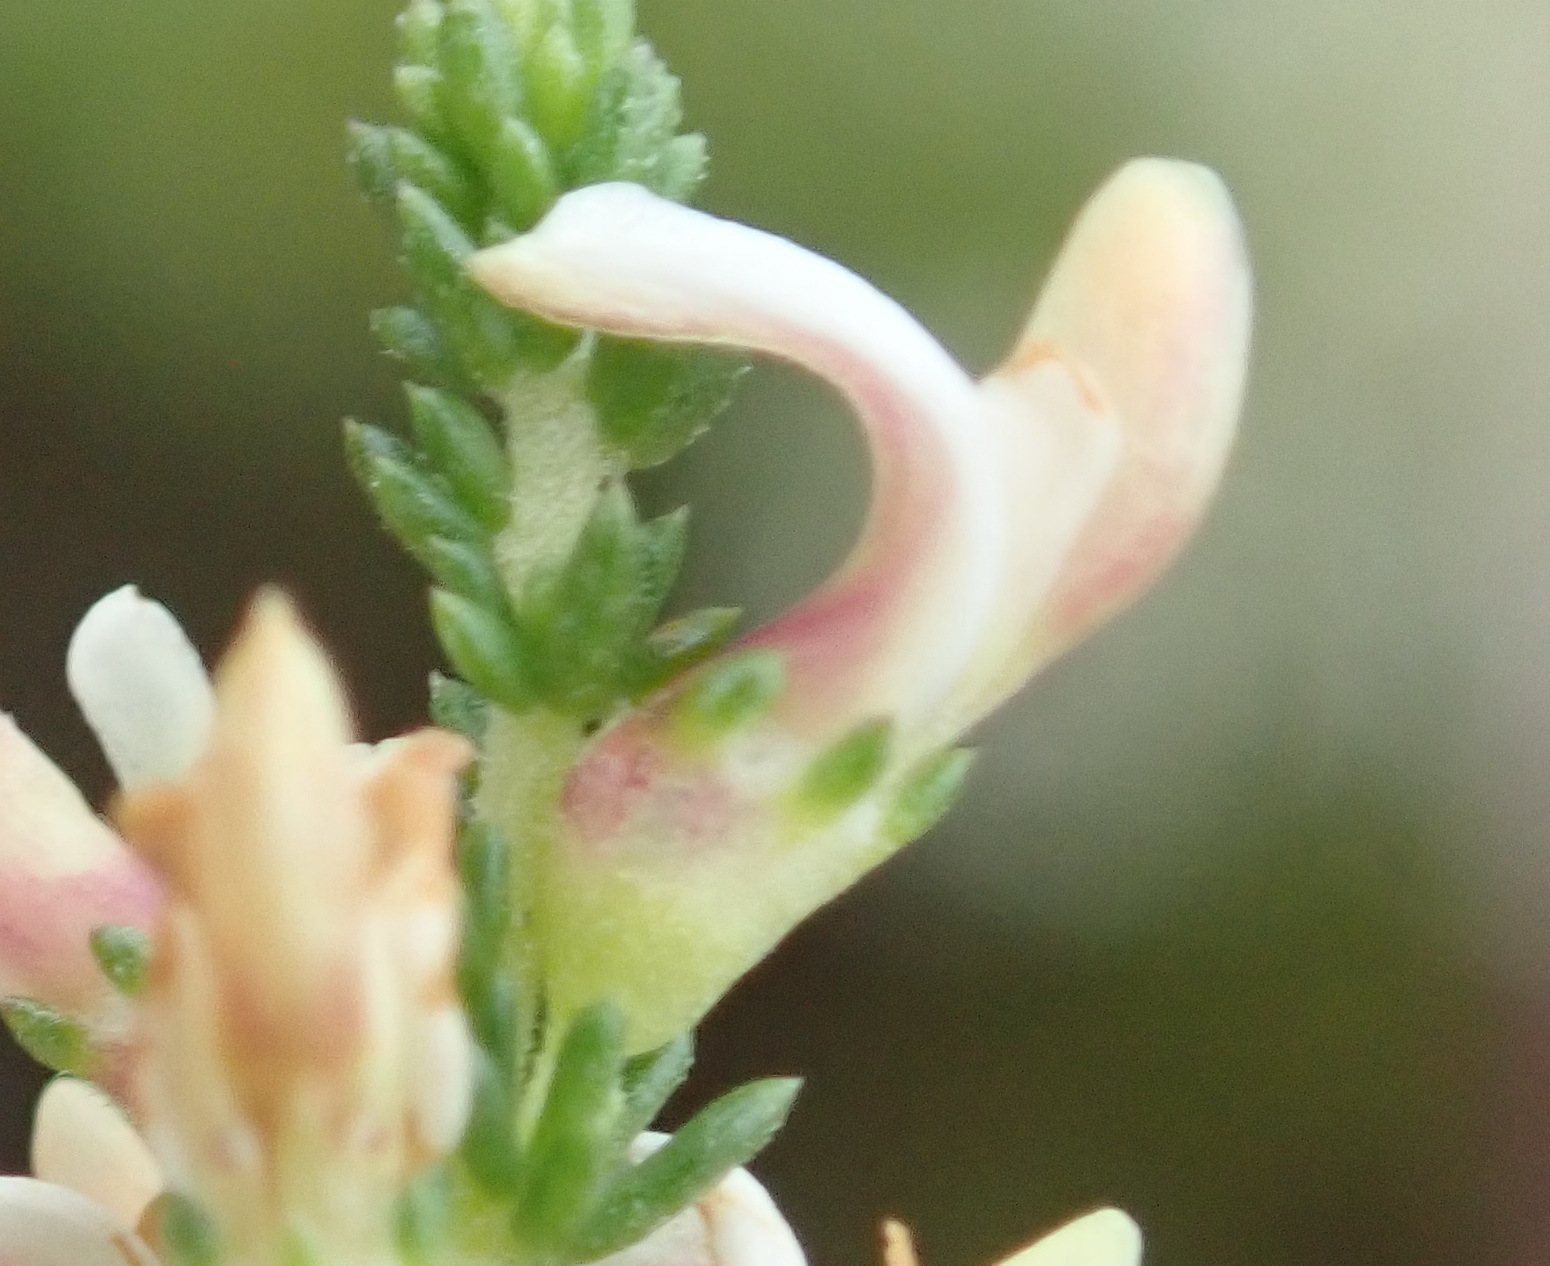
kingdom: Plantae
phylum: Tracheophyta
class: Magnoliopsida
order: Fabales
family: Fabaceae
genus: Aspalathus
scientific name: Aspalathus hispida
